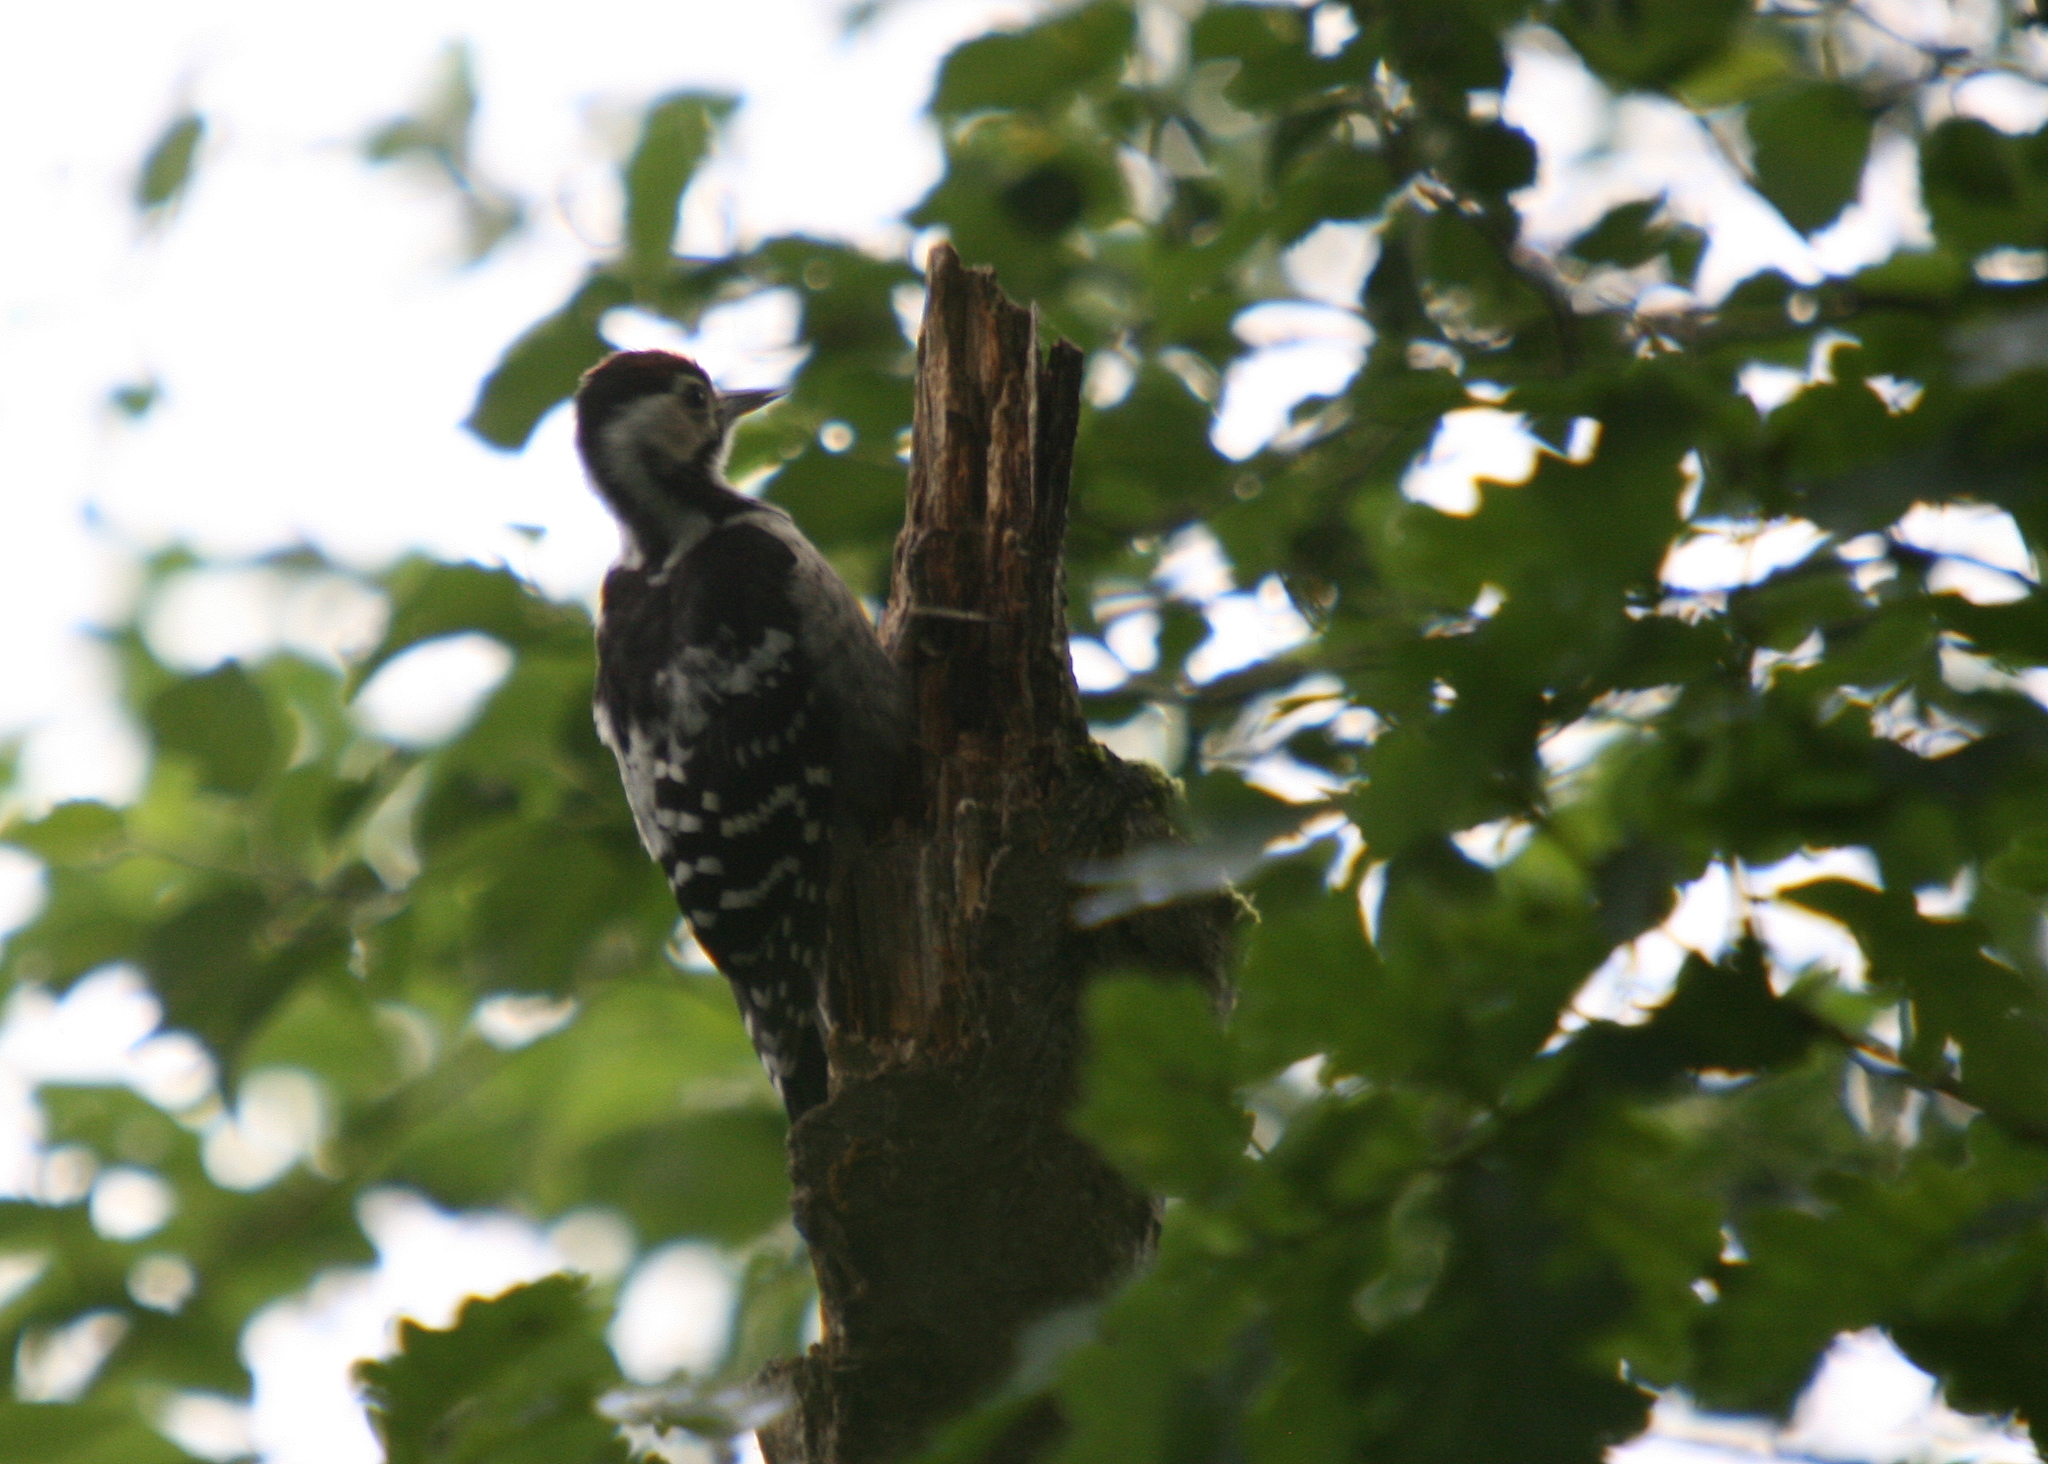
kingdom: Animalia
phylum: Chordata
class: Aves
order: Piciformes
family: Picidae
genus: Dendrocopos
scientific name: Dendrocopos leucotos
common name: White-backed woodpecker
